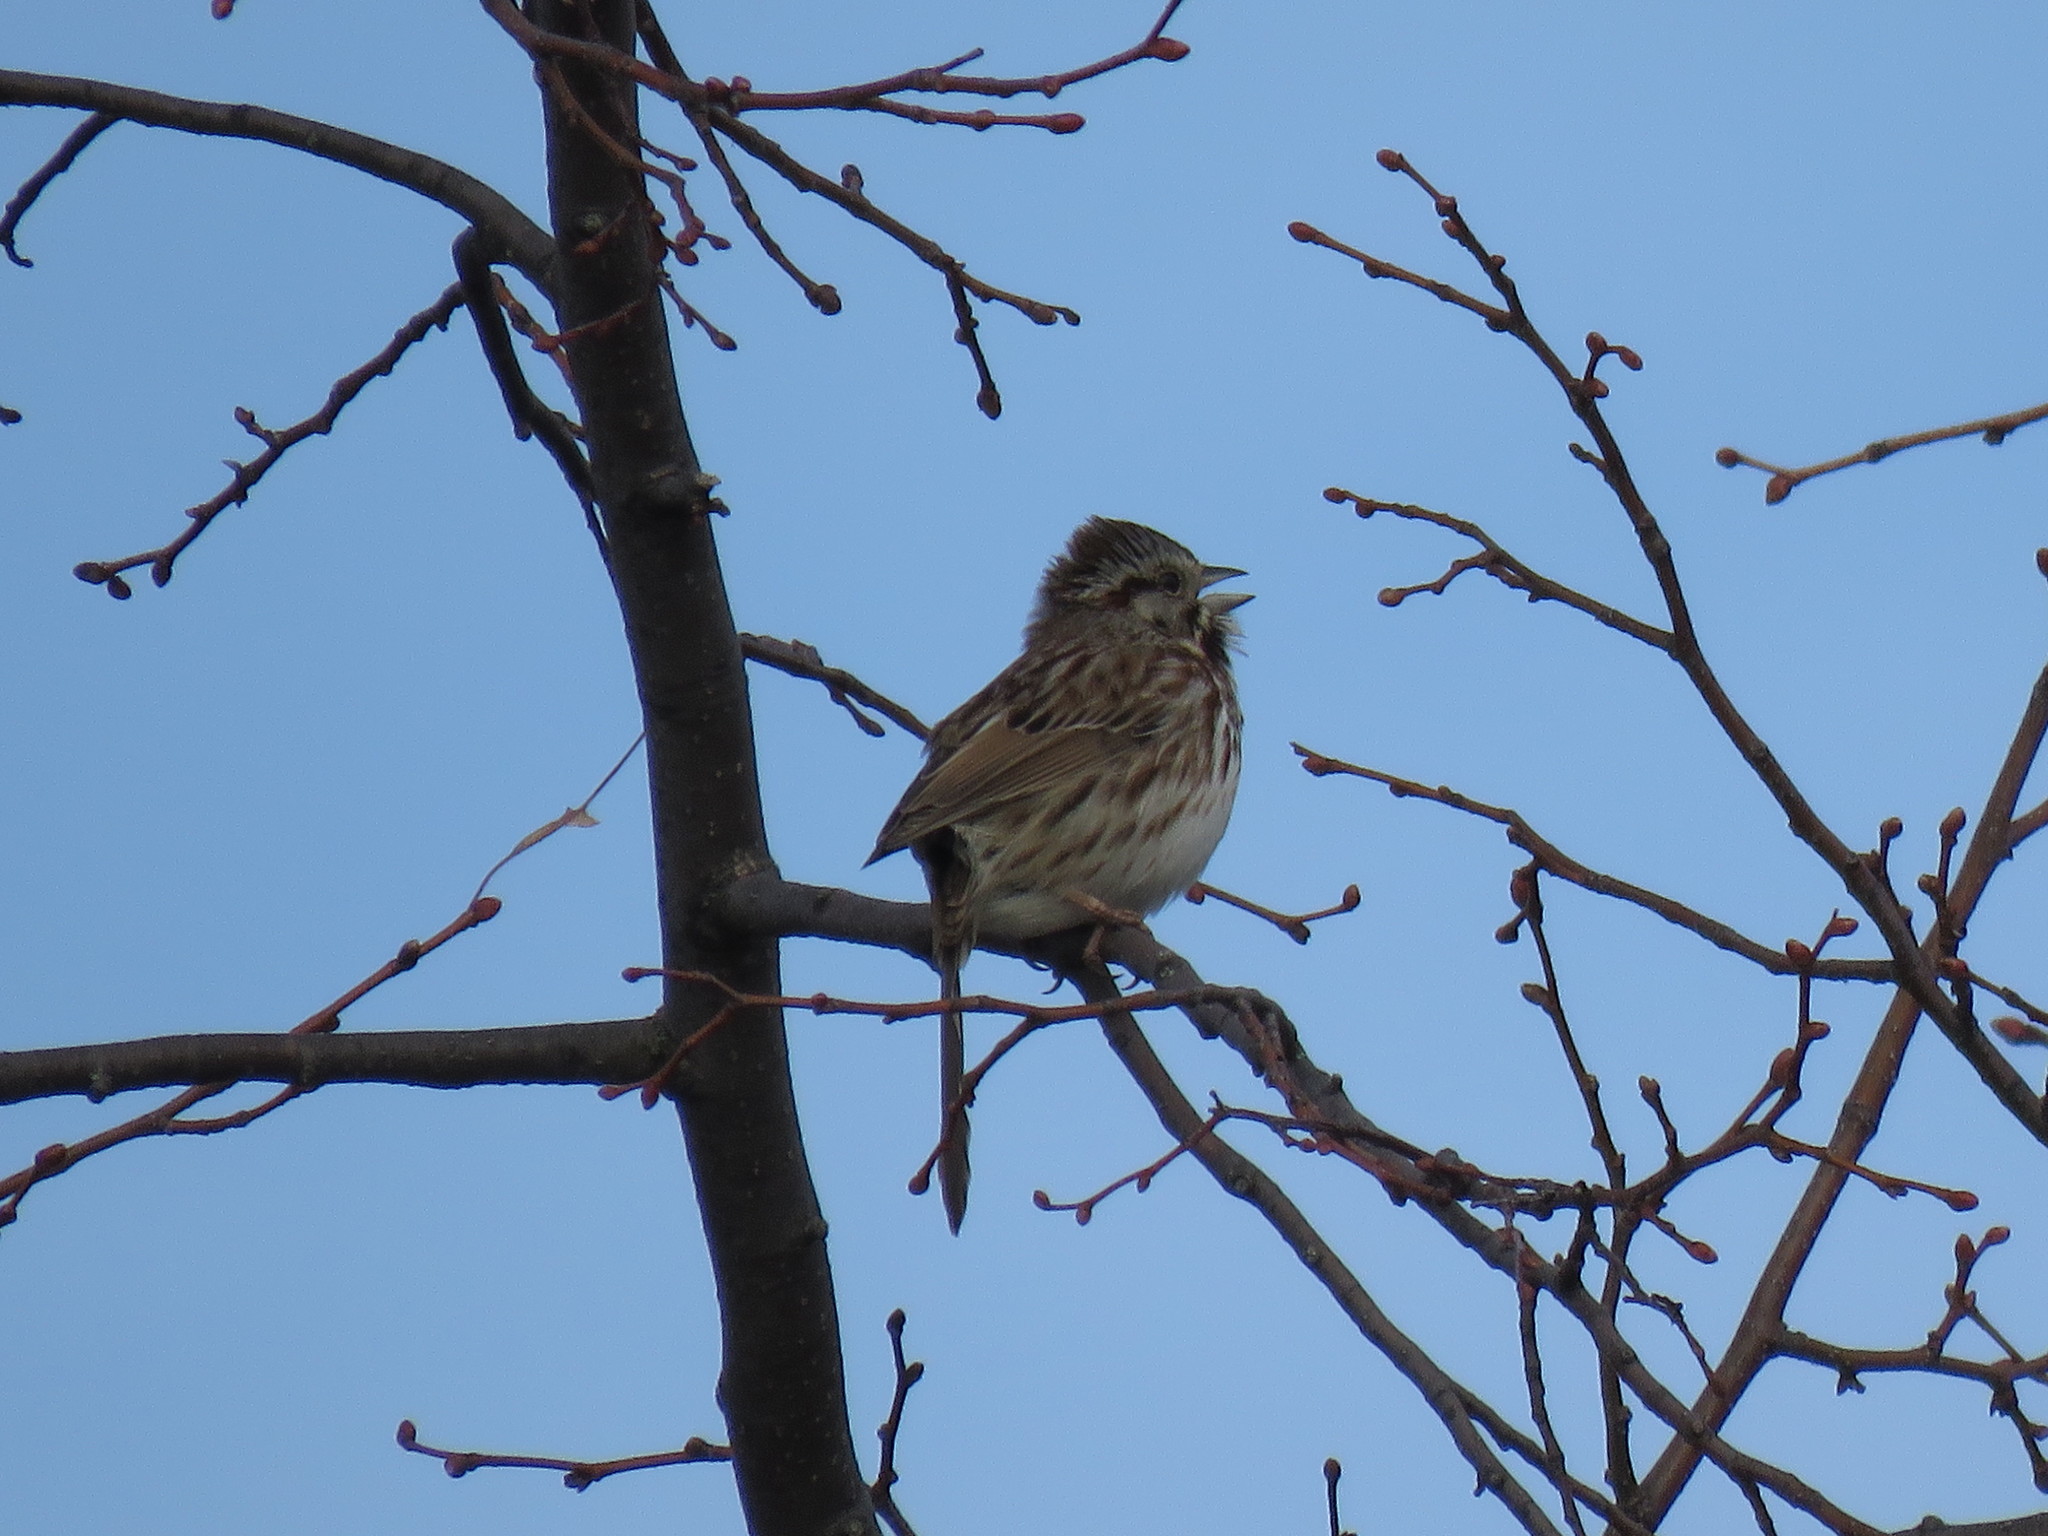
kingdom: Animalia
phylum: Chordata
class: Aves
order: Passeriformes
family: Passerellidae
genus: Melospiza
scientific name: Melospiza melodia
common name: Song sparrow
